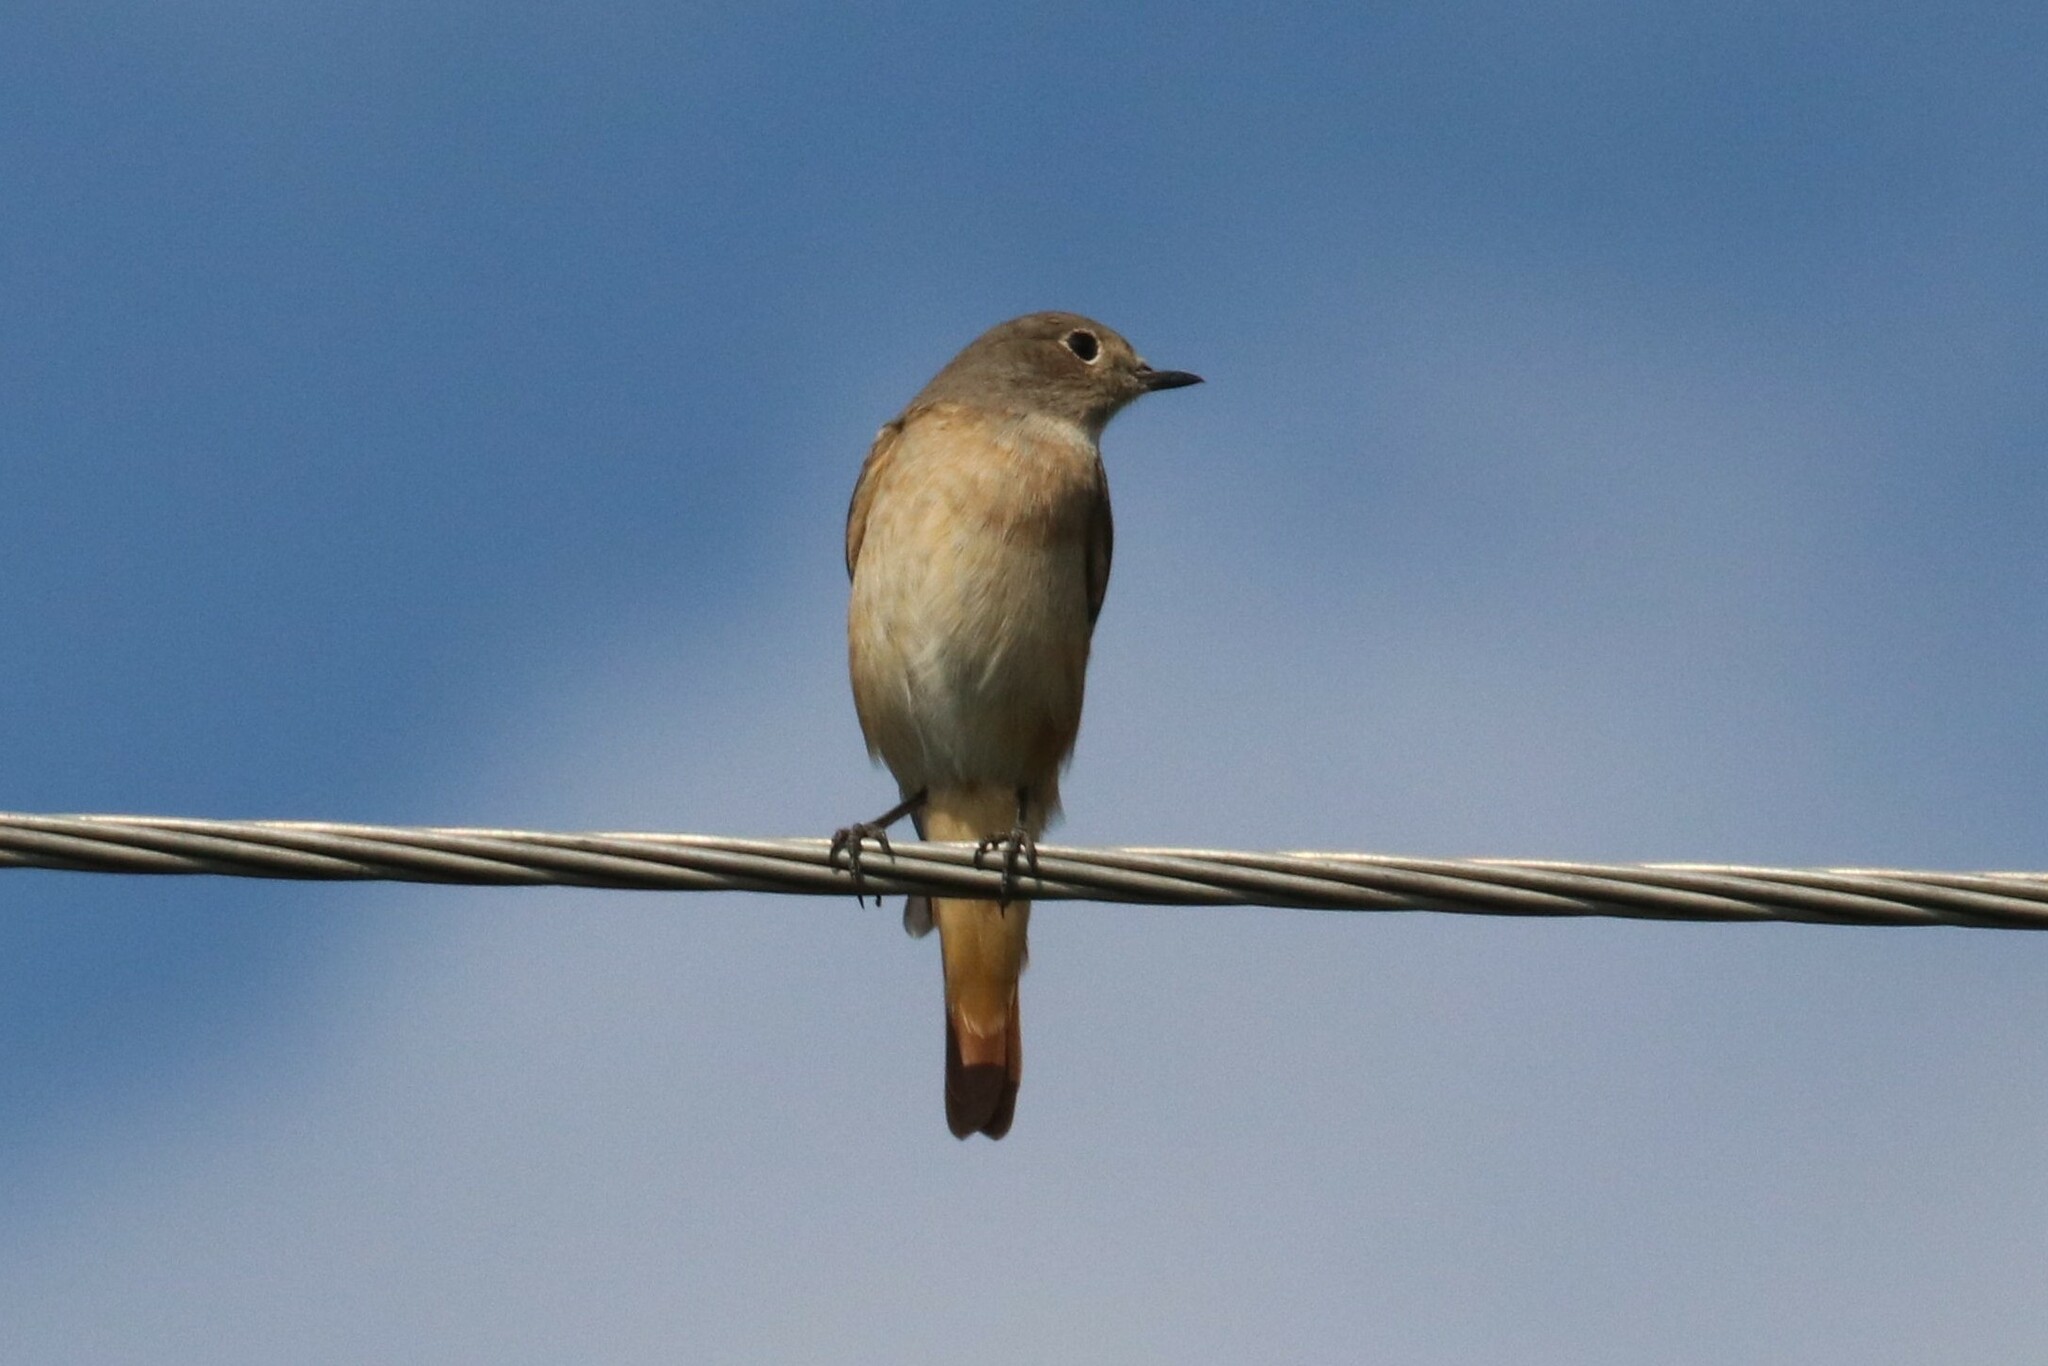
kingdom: Animalia
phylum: Chordata
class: Aves
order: Passeriformes
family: Muscicapidae
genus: Phoenicurus
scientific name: Phoenicurus phoenicurus
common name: Common redstart
